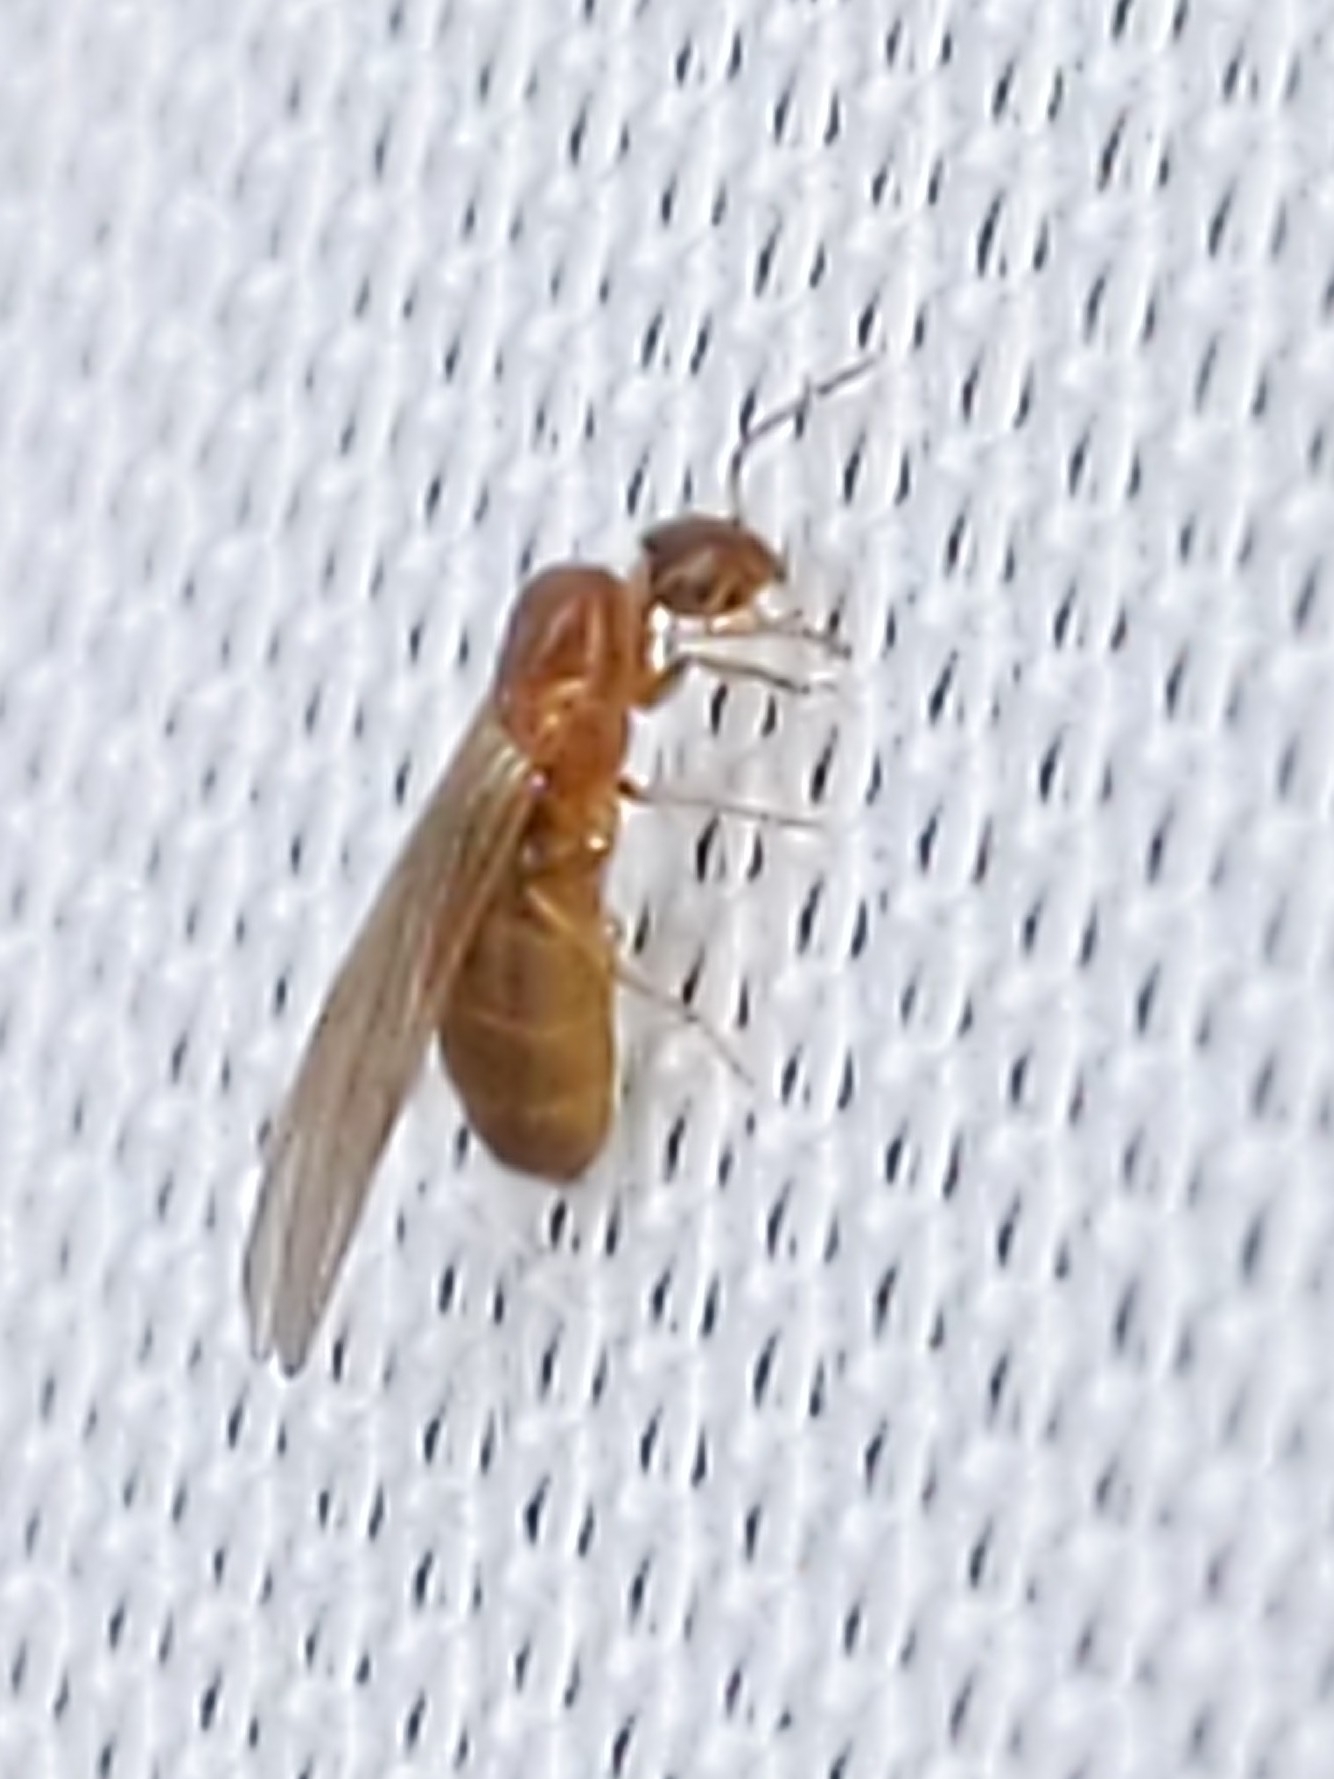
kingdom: Animalia
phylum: Arthropoda
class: Insecta
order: Hymenoptera
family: Formicidae
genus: Brachymyrmex
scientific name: Brachymyrmex depilis
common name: Hairless rover ant
